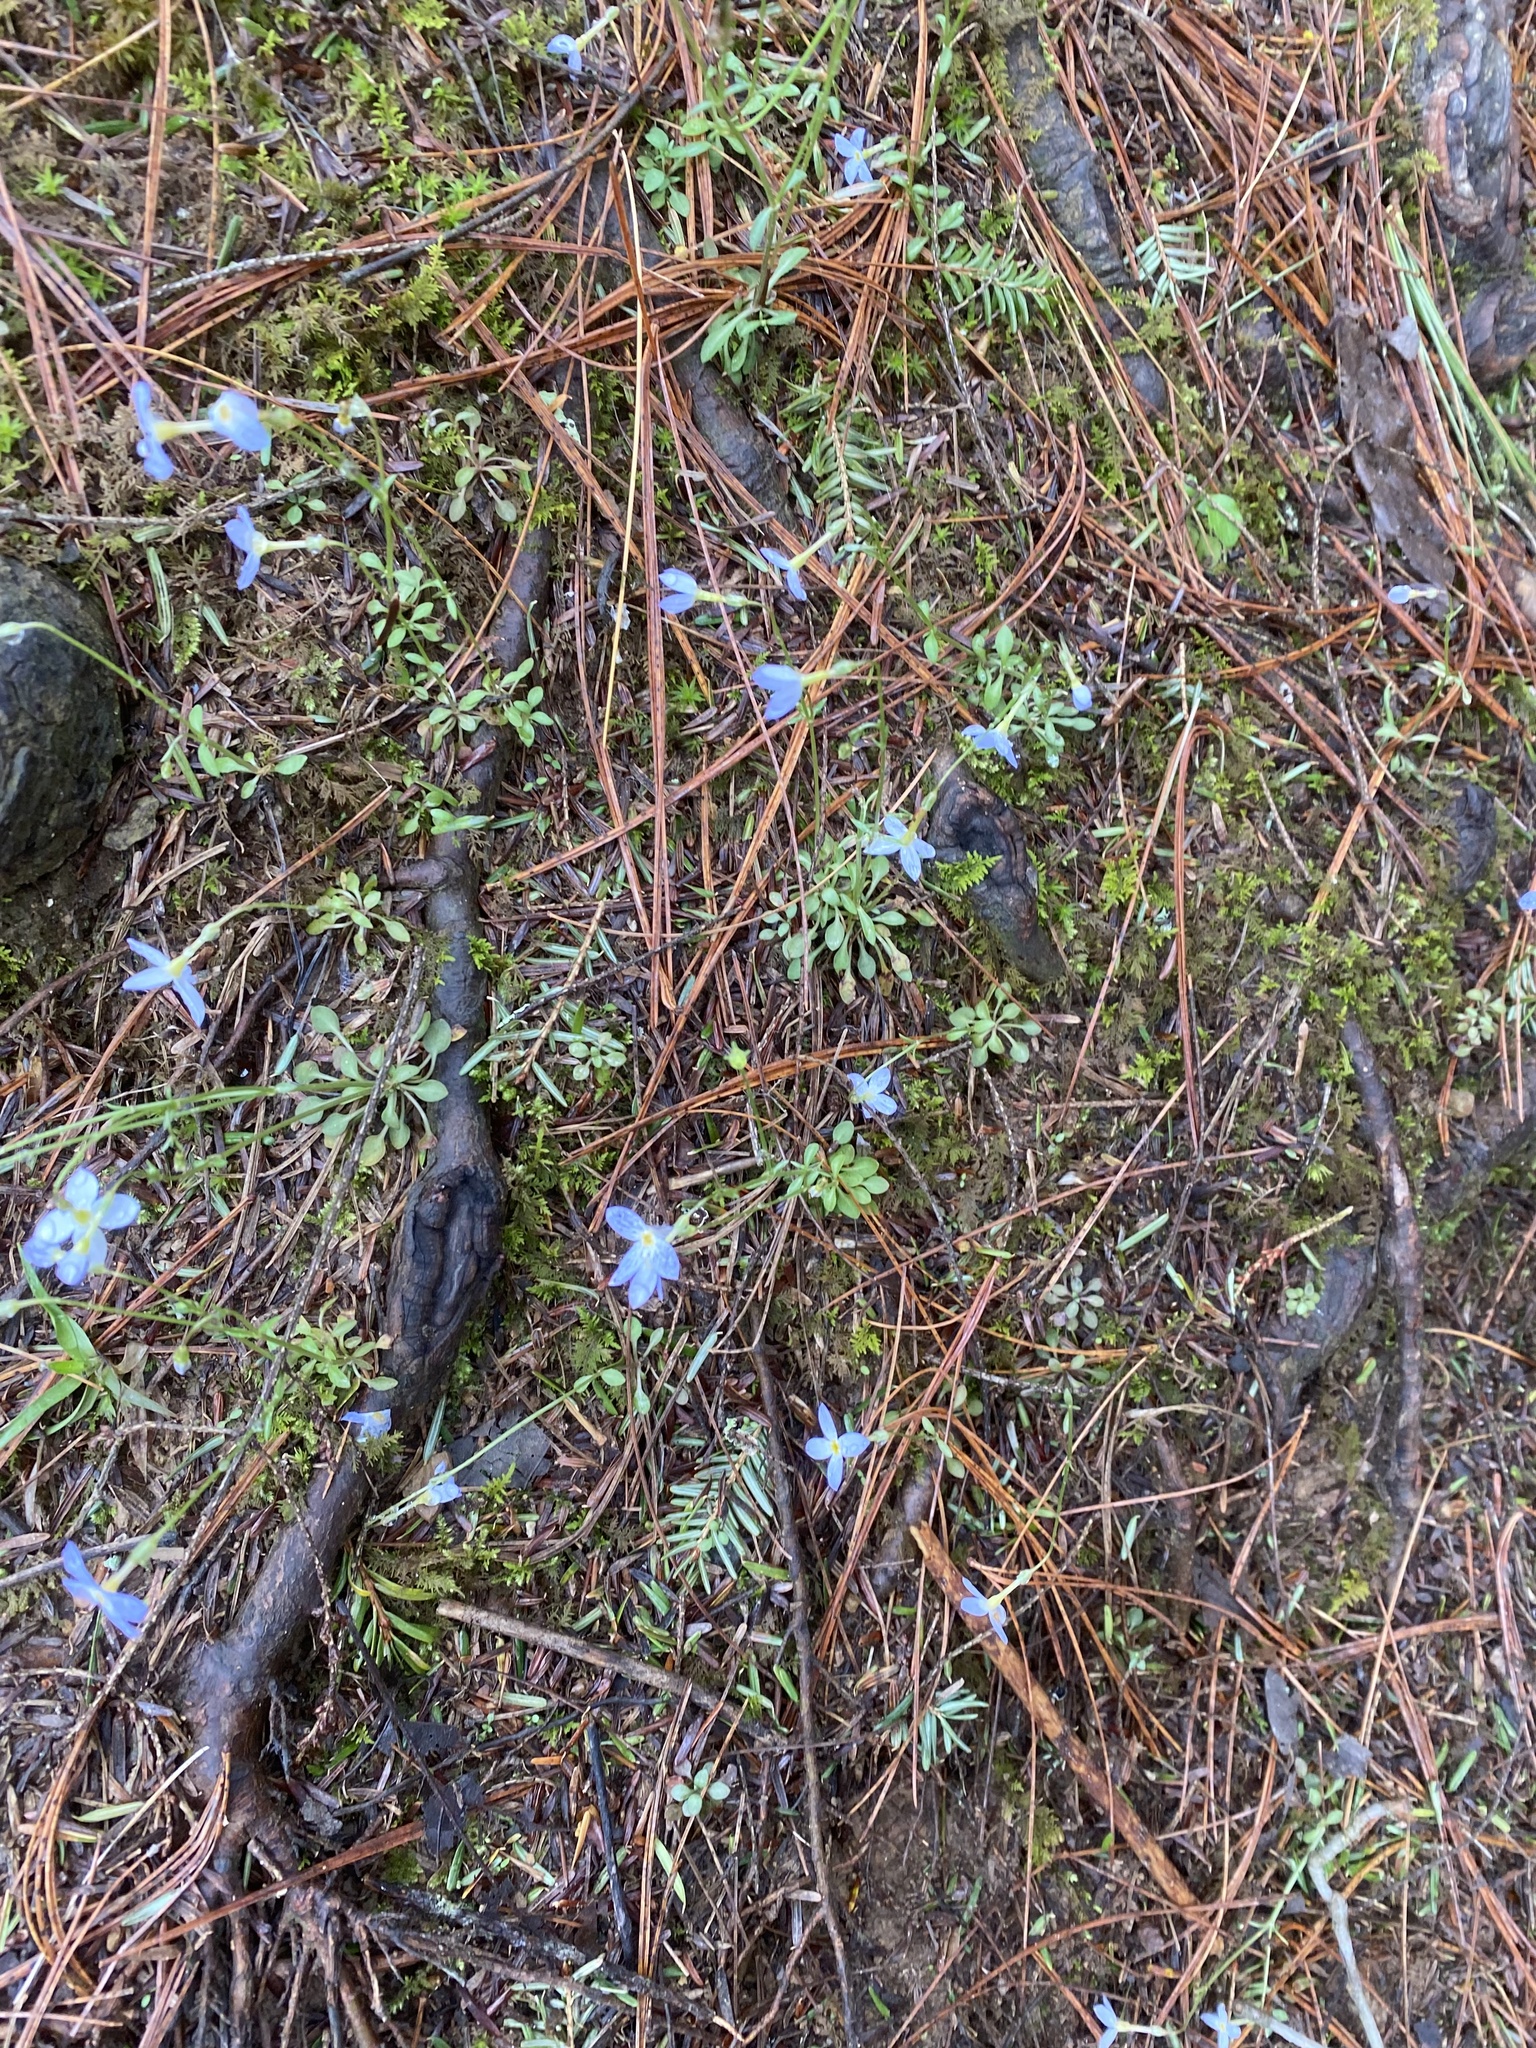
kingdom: Plantae
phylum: Tracheophyta
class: Magnoliopsida
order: Gentianales
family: Rubiaceae
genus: Houstonia
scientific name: Houstonia caerulea
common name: Bluets
